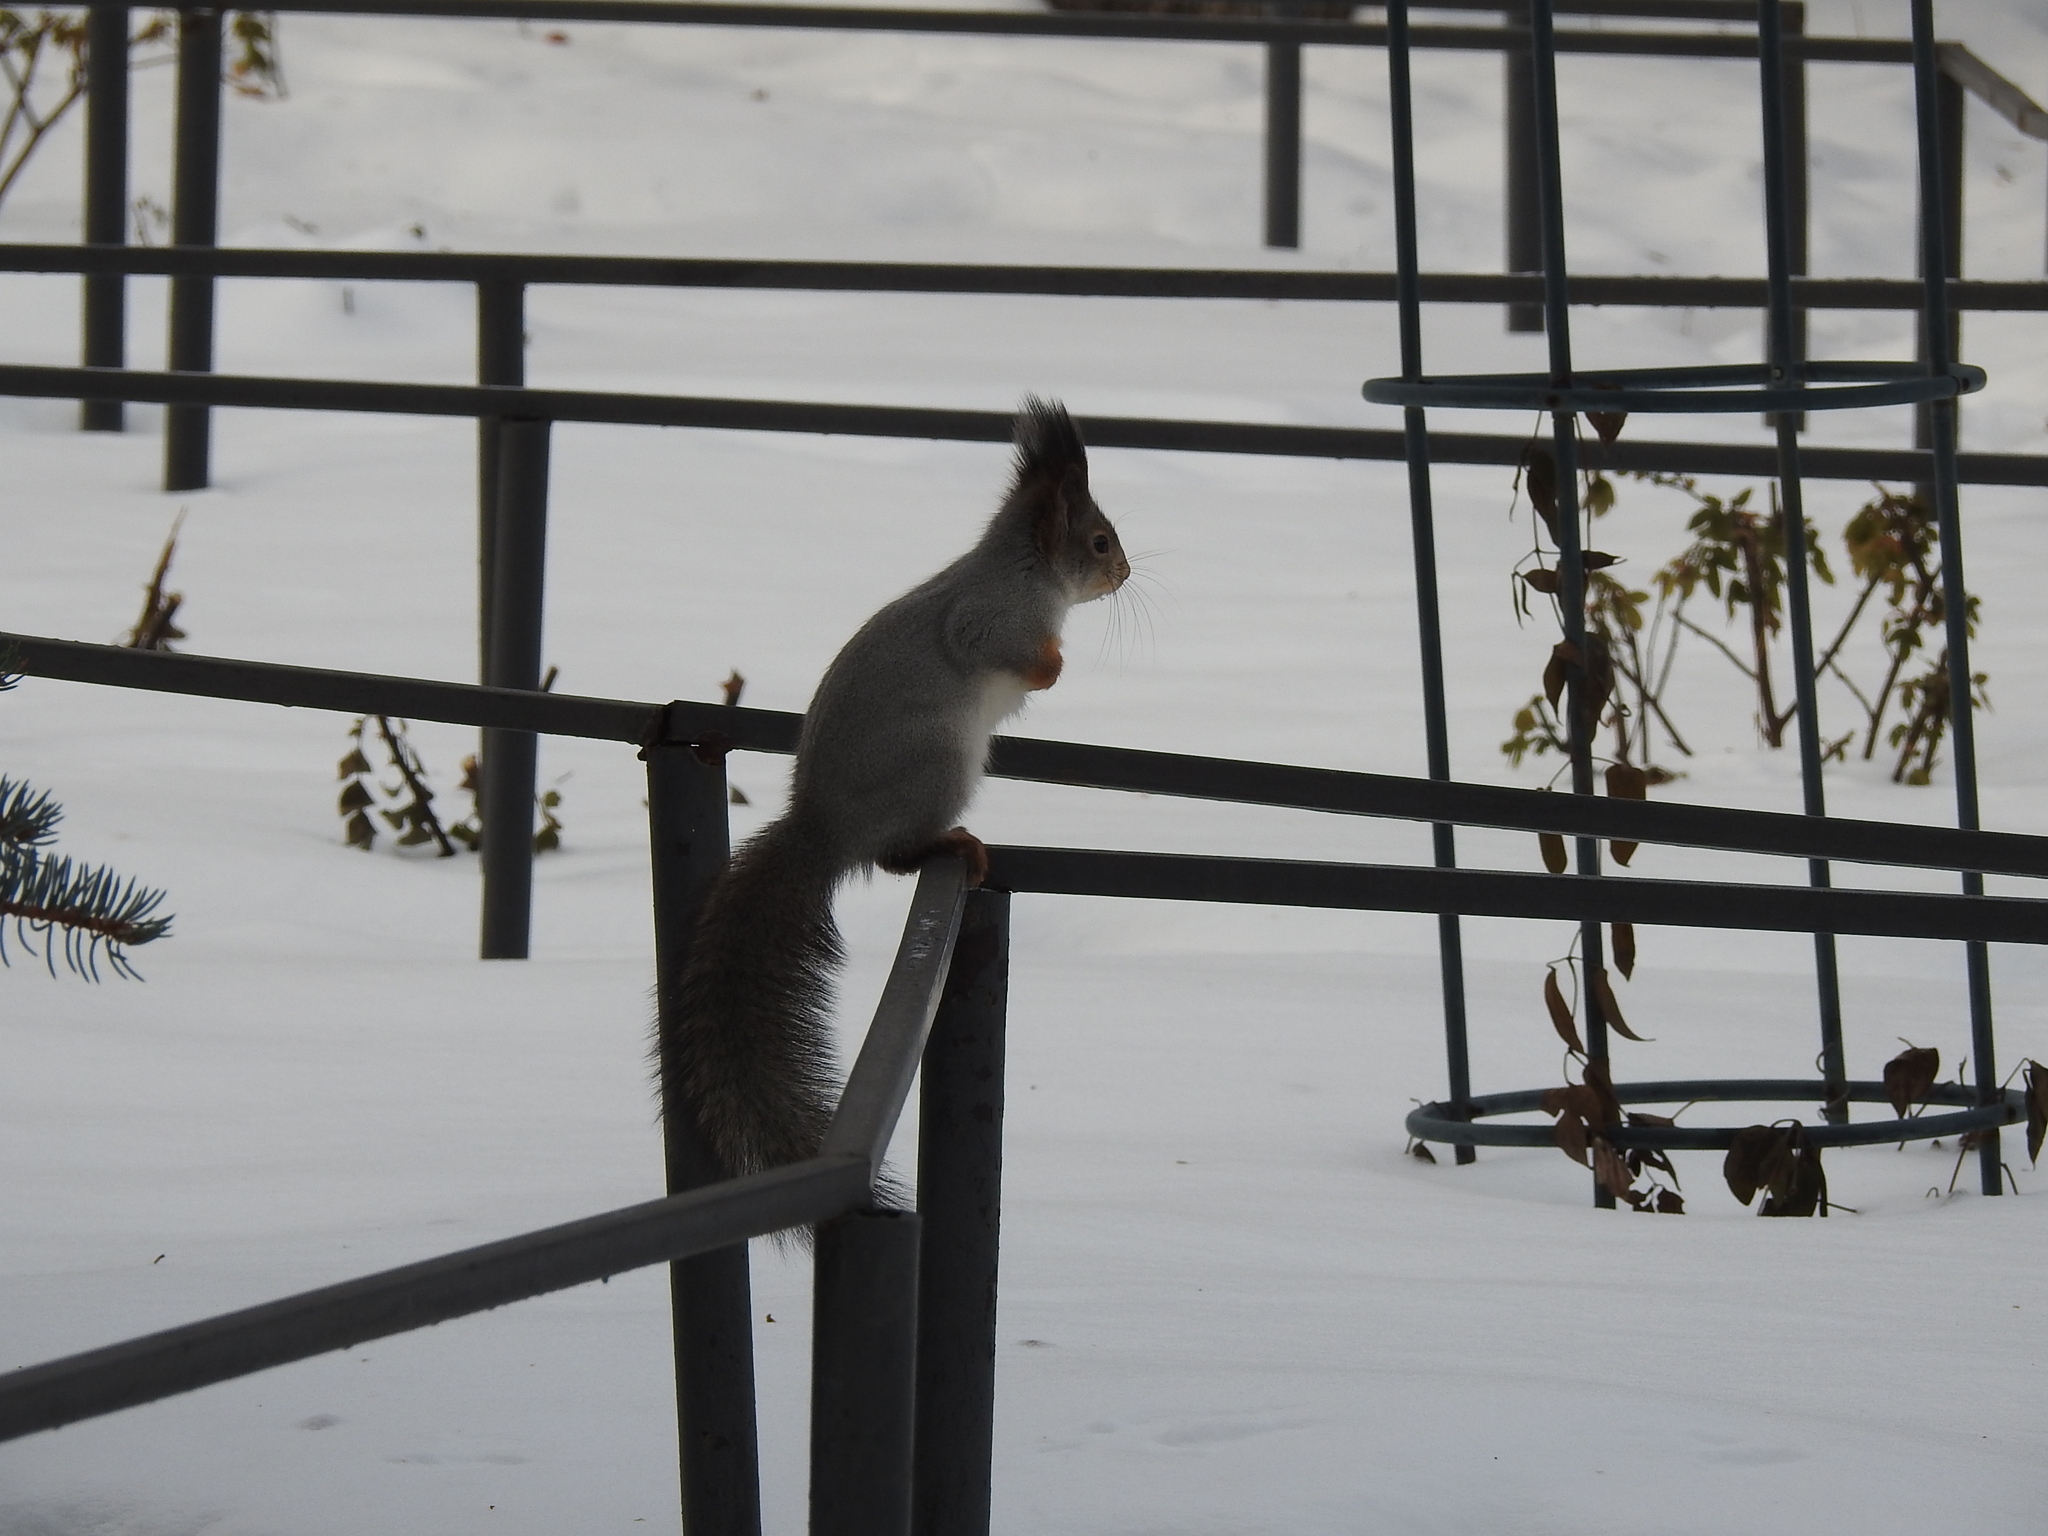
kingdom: Animalia
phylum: Chordata
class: Mammalia
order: Rodentia
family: Sciuridae
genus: Sciurus
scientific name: Sciurus vulgaris
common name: Eurasian red squirrel
